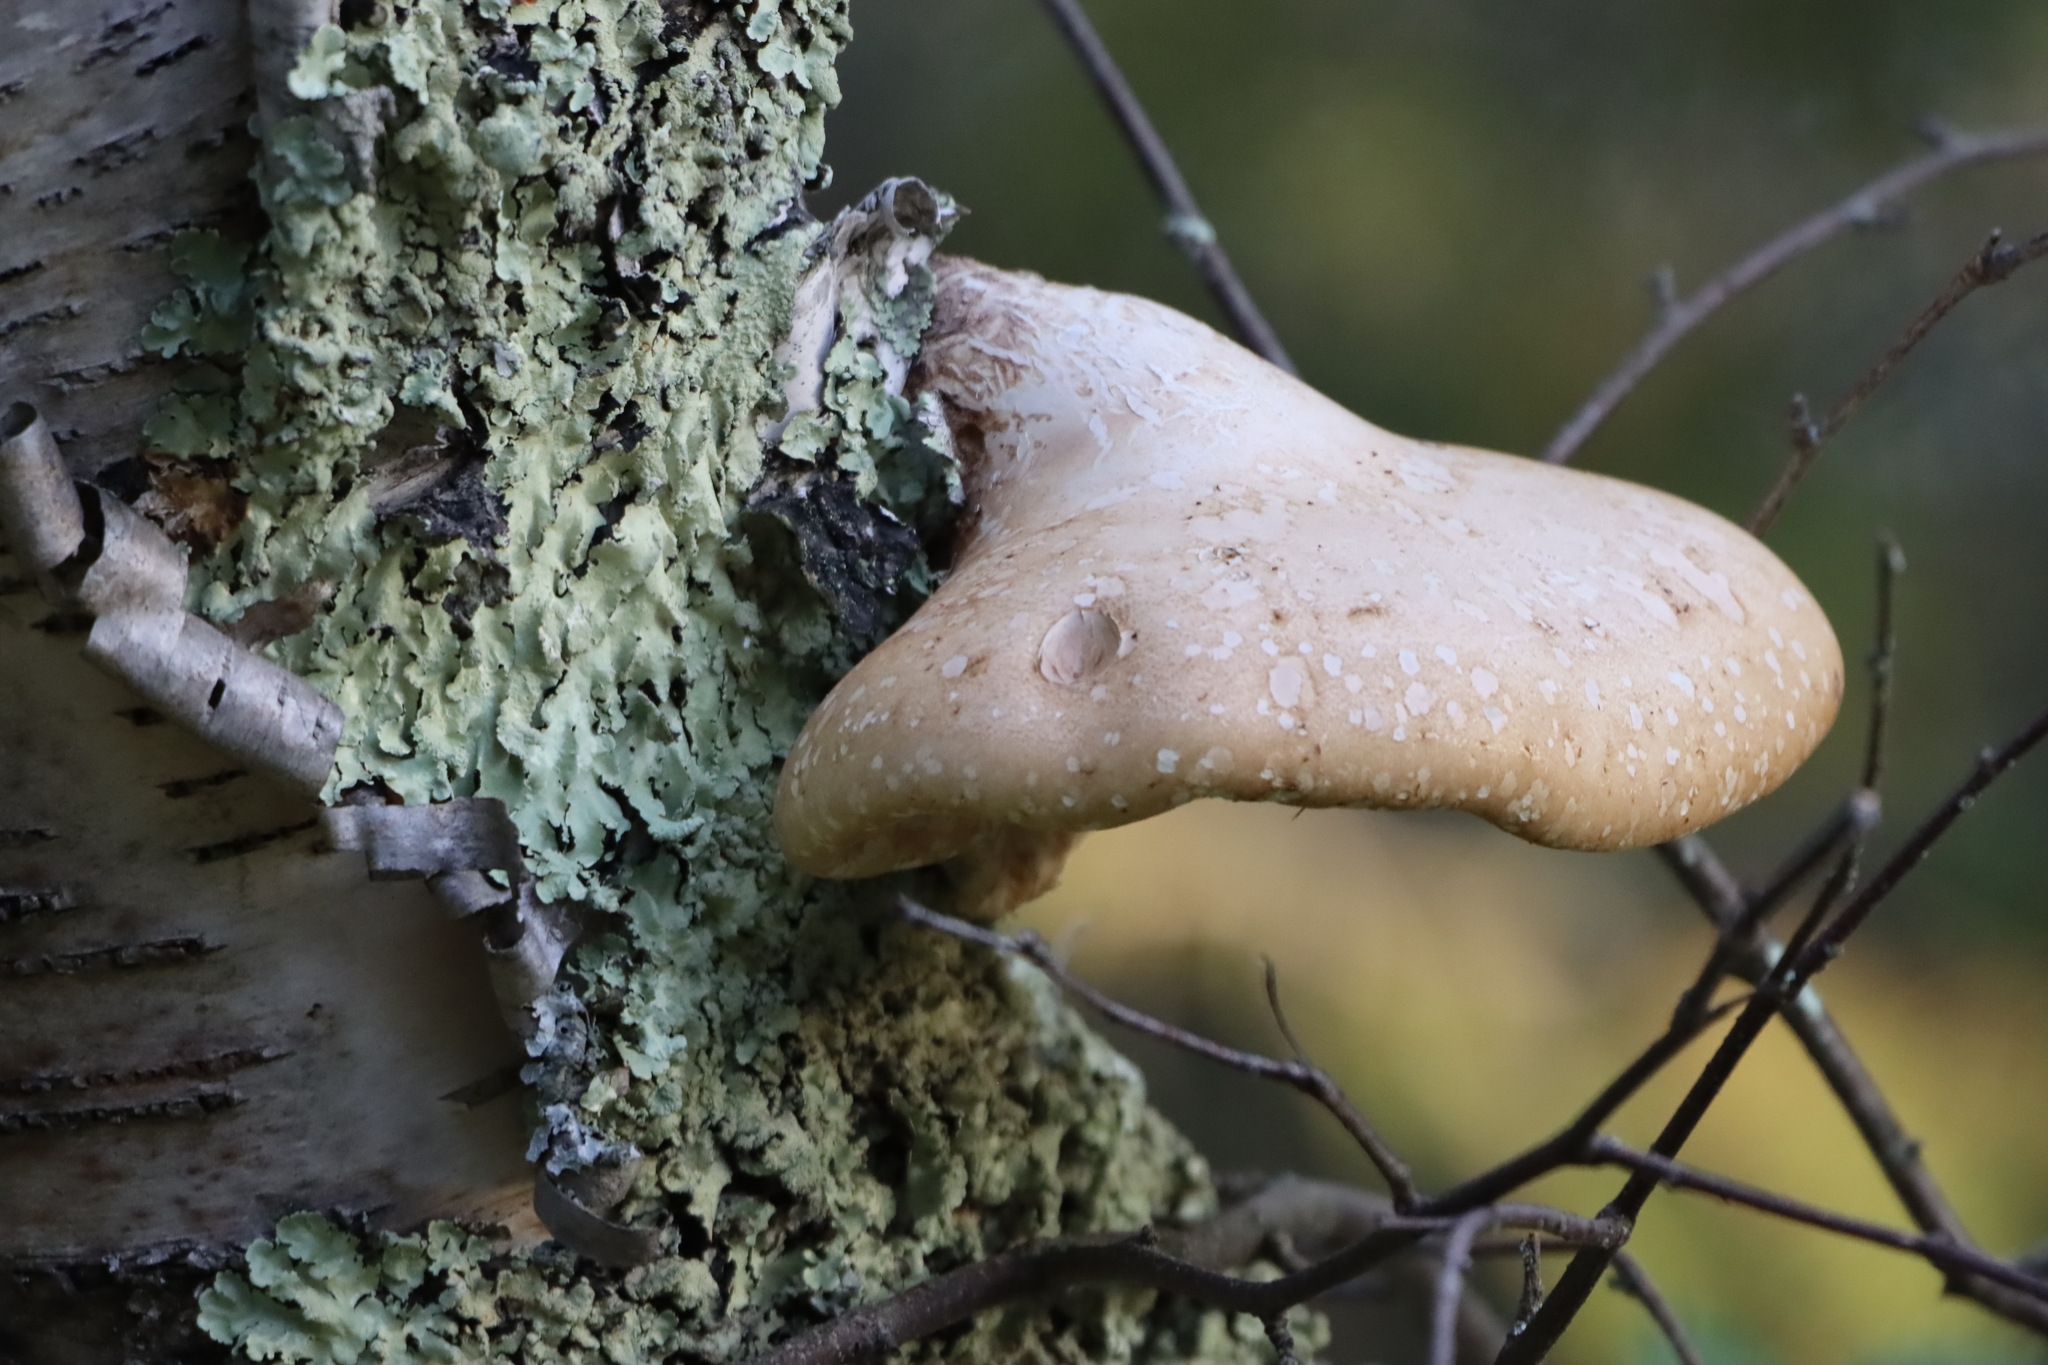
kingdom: Fungi
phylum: Basidiomycota
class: Agaricomycetes
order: Polyporales
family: Fomitopsidaceae
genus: Fomitopsis
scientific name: Fomitopsis betulina
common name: Birch polypore
